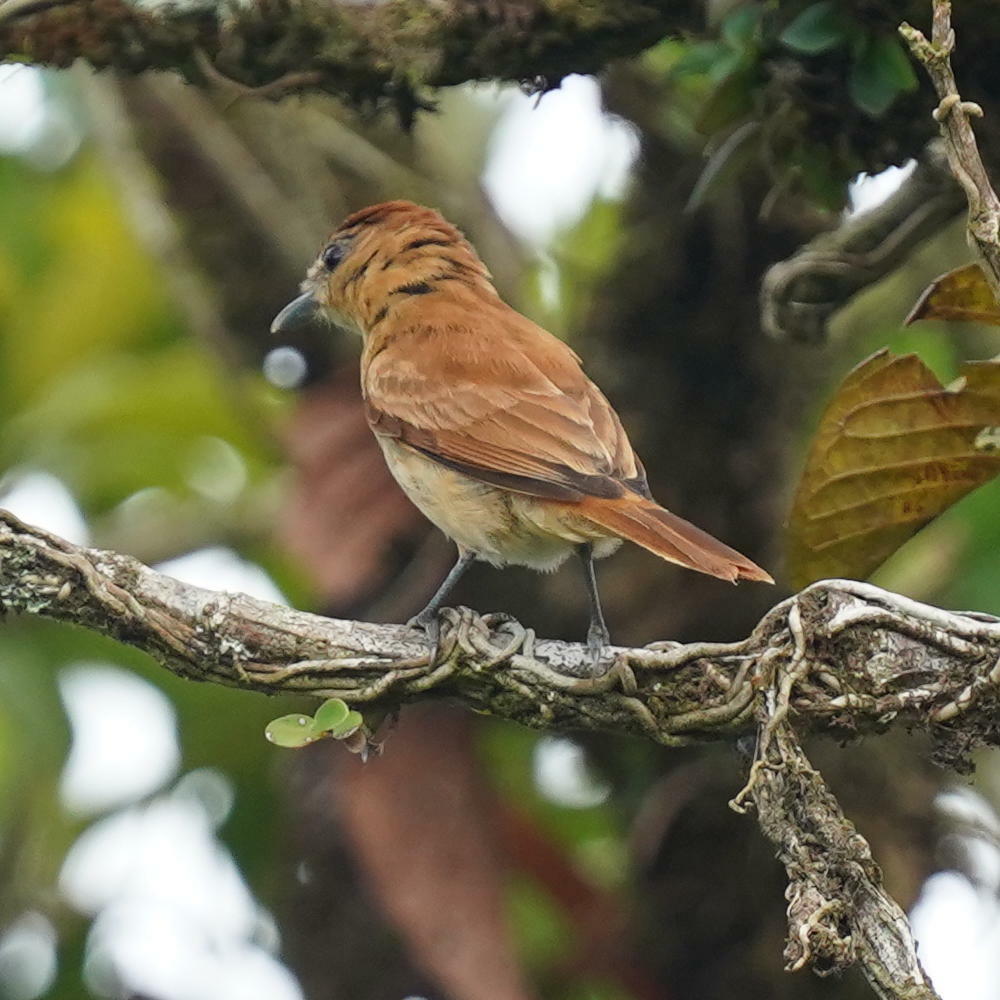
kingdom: Animalia
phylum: Chordata
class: Aves
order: Passeriformes
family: Cotingidae
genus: Pachyramphus
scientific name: Pachyramphus cinnamomeus
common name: Cinnamon becard
